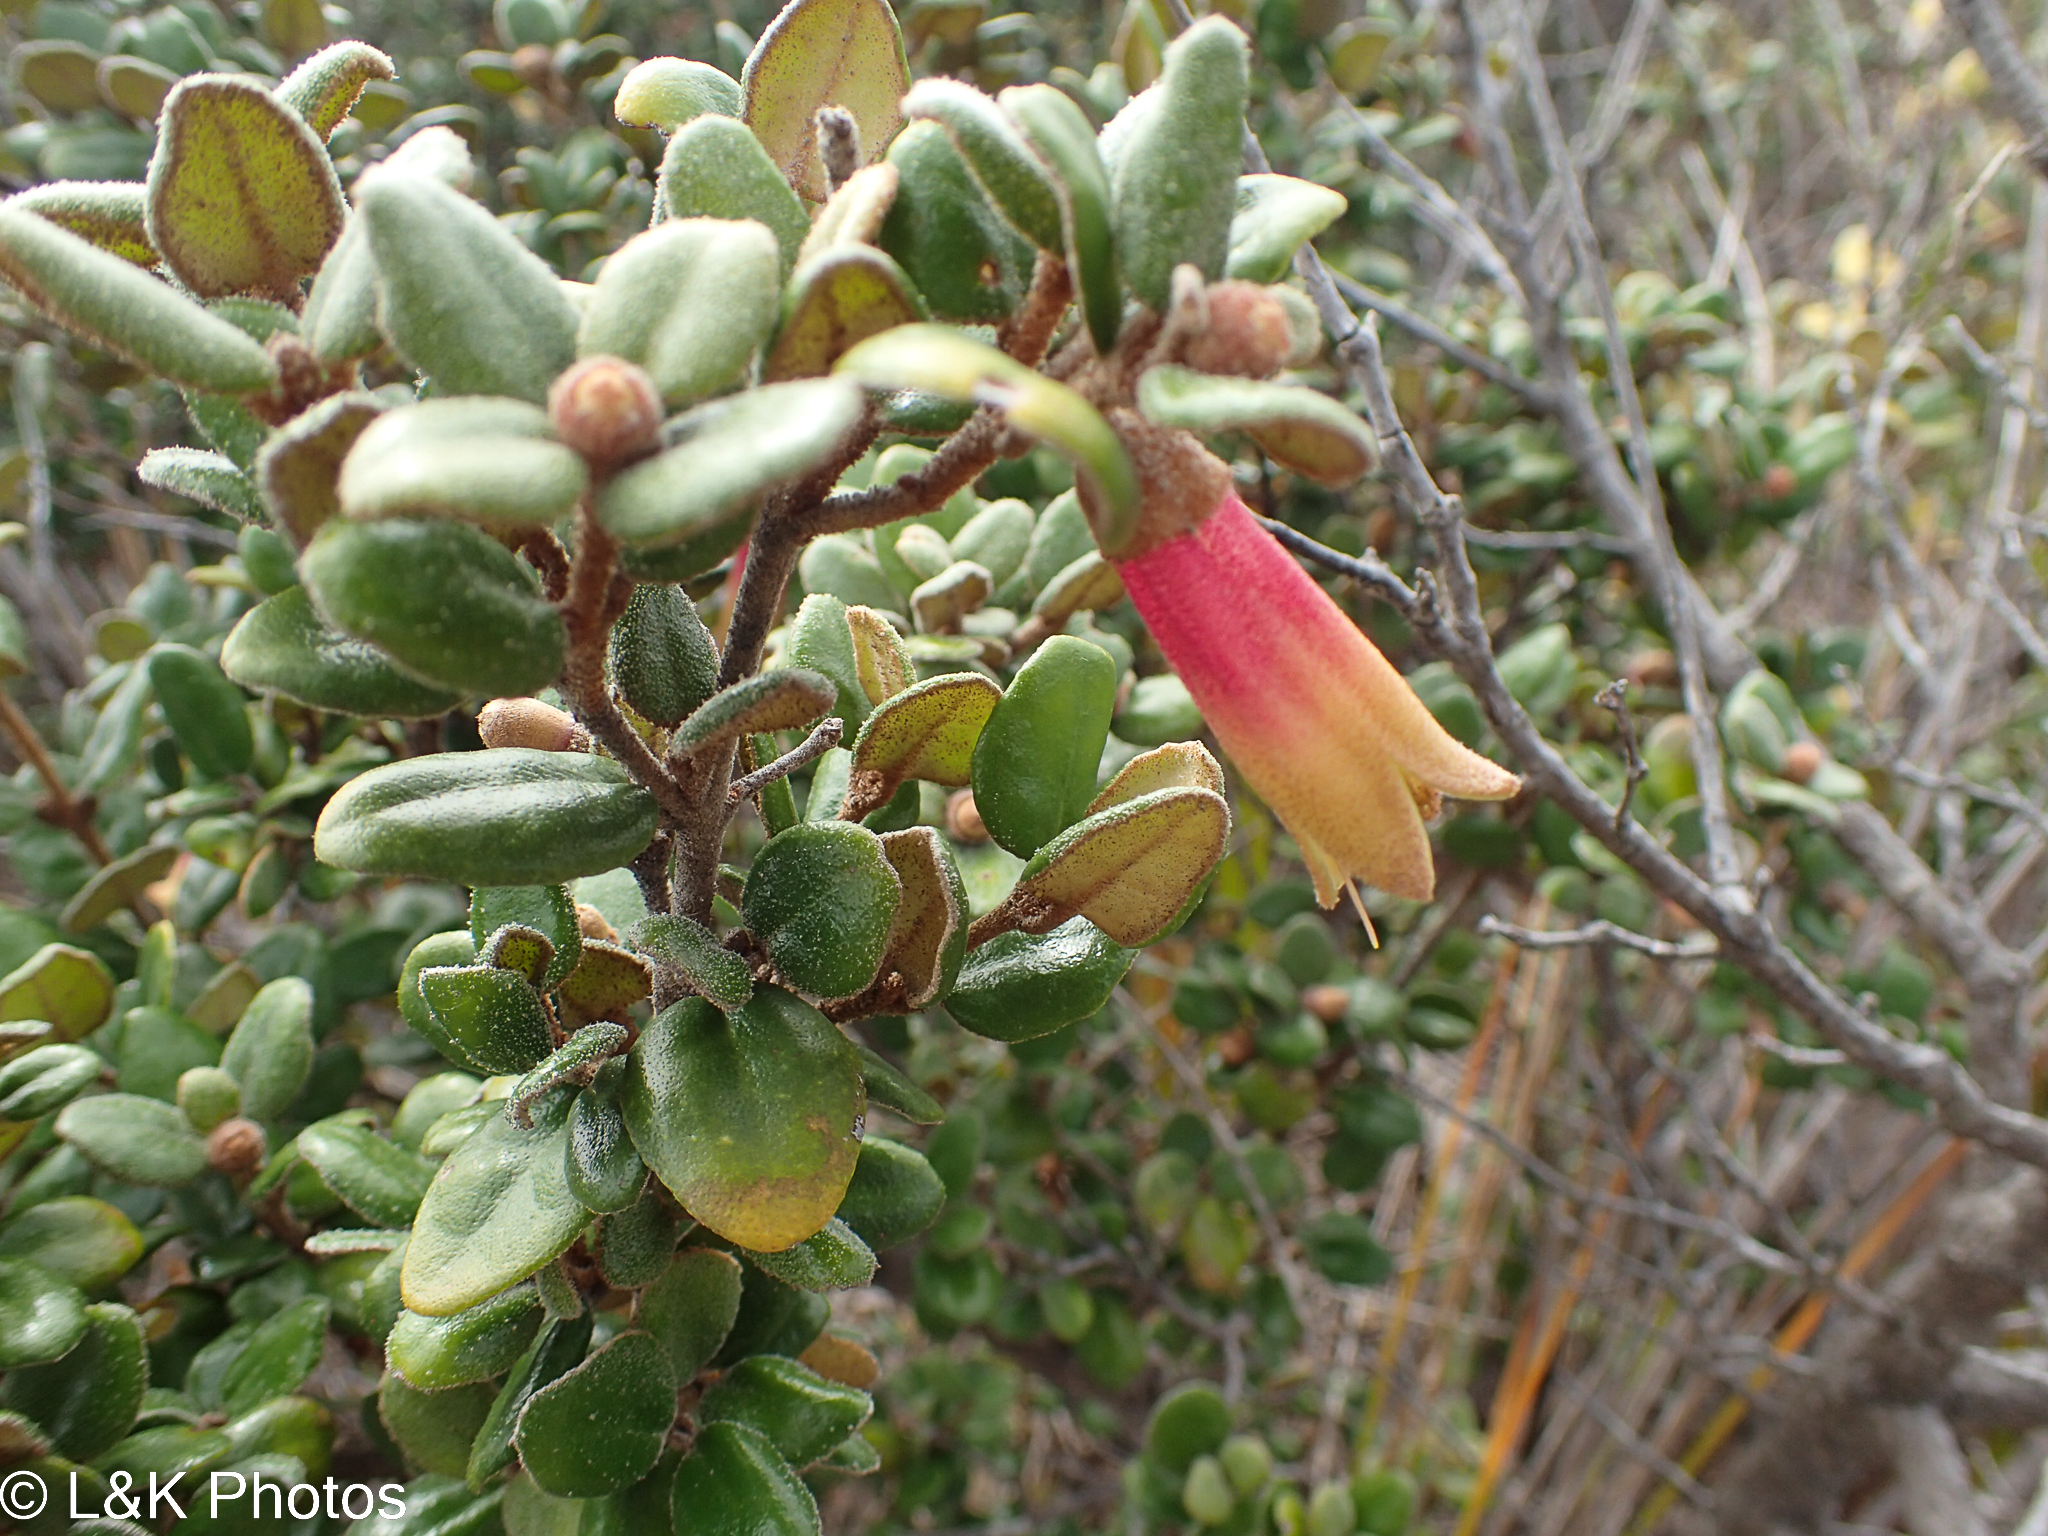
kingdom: Plantae
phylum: Tracheophyta
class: Magnoliopsida
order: Sapindales
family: Rutaceae
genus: Correa
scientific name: Correa backhouseana
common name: Tasmanian-fuchsia
